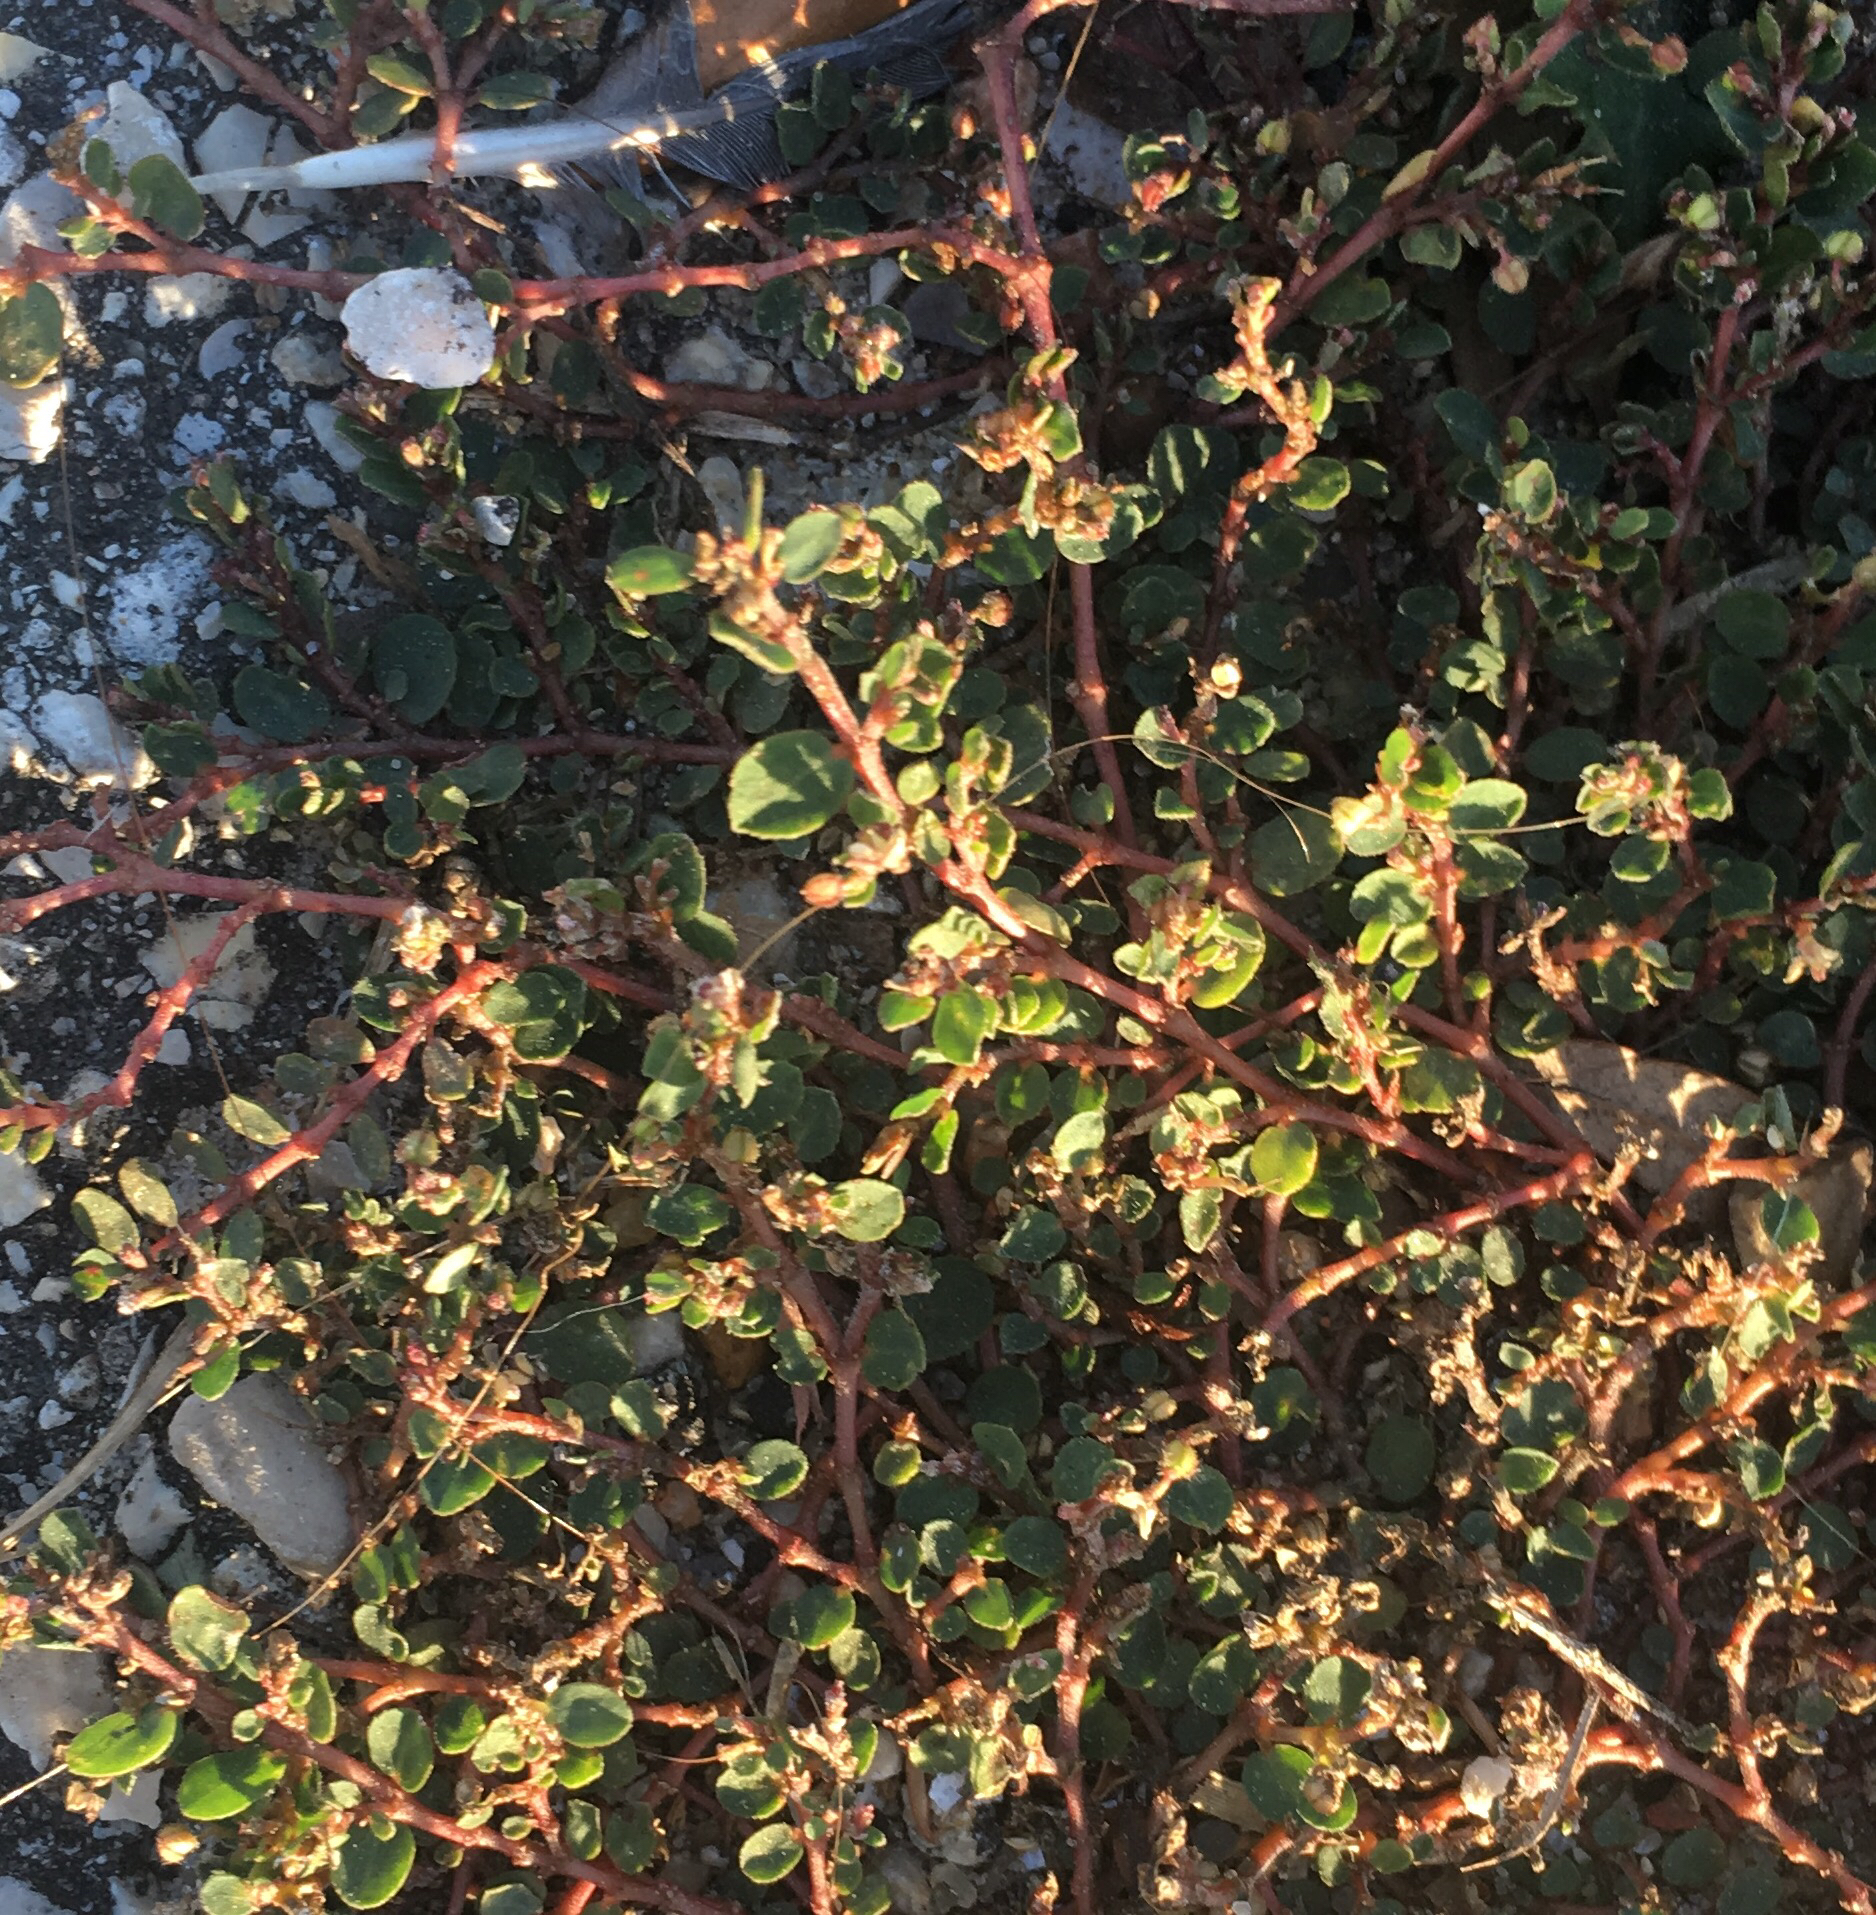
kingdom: Plantae
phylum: Tracheophyta
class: Magnoliopsida
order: Malpighiales
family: Euphorbiaceae
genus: Euphorbia
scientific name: Euphorbia prostrata
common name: Prostrate sandmat
